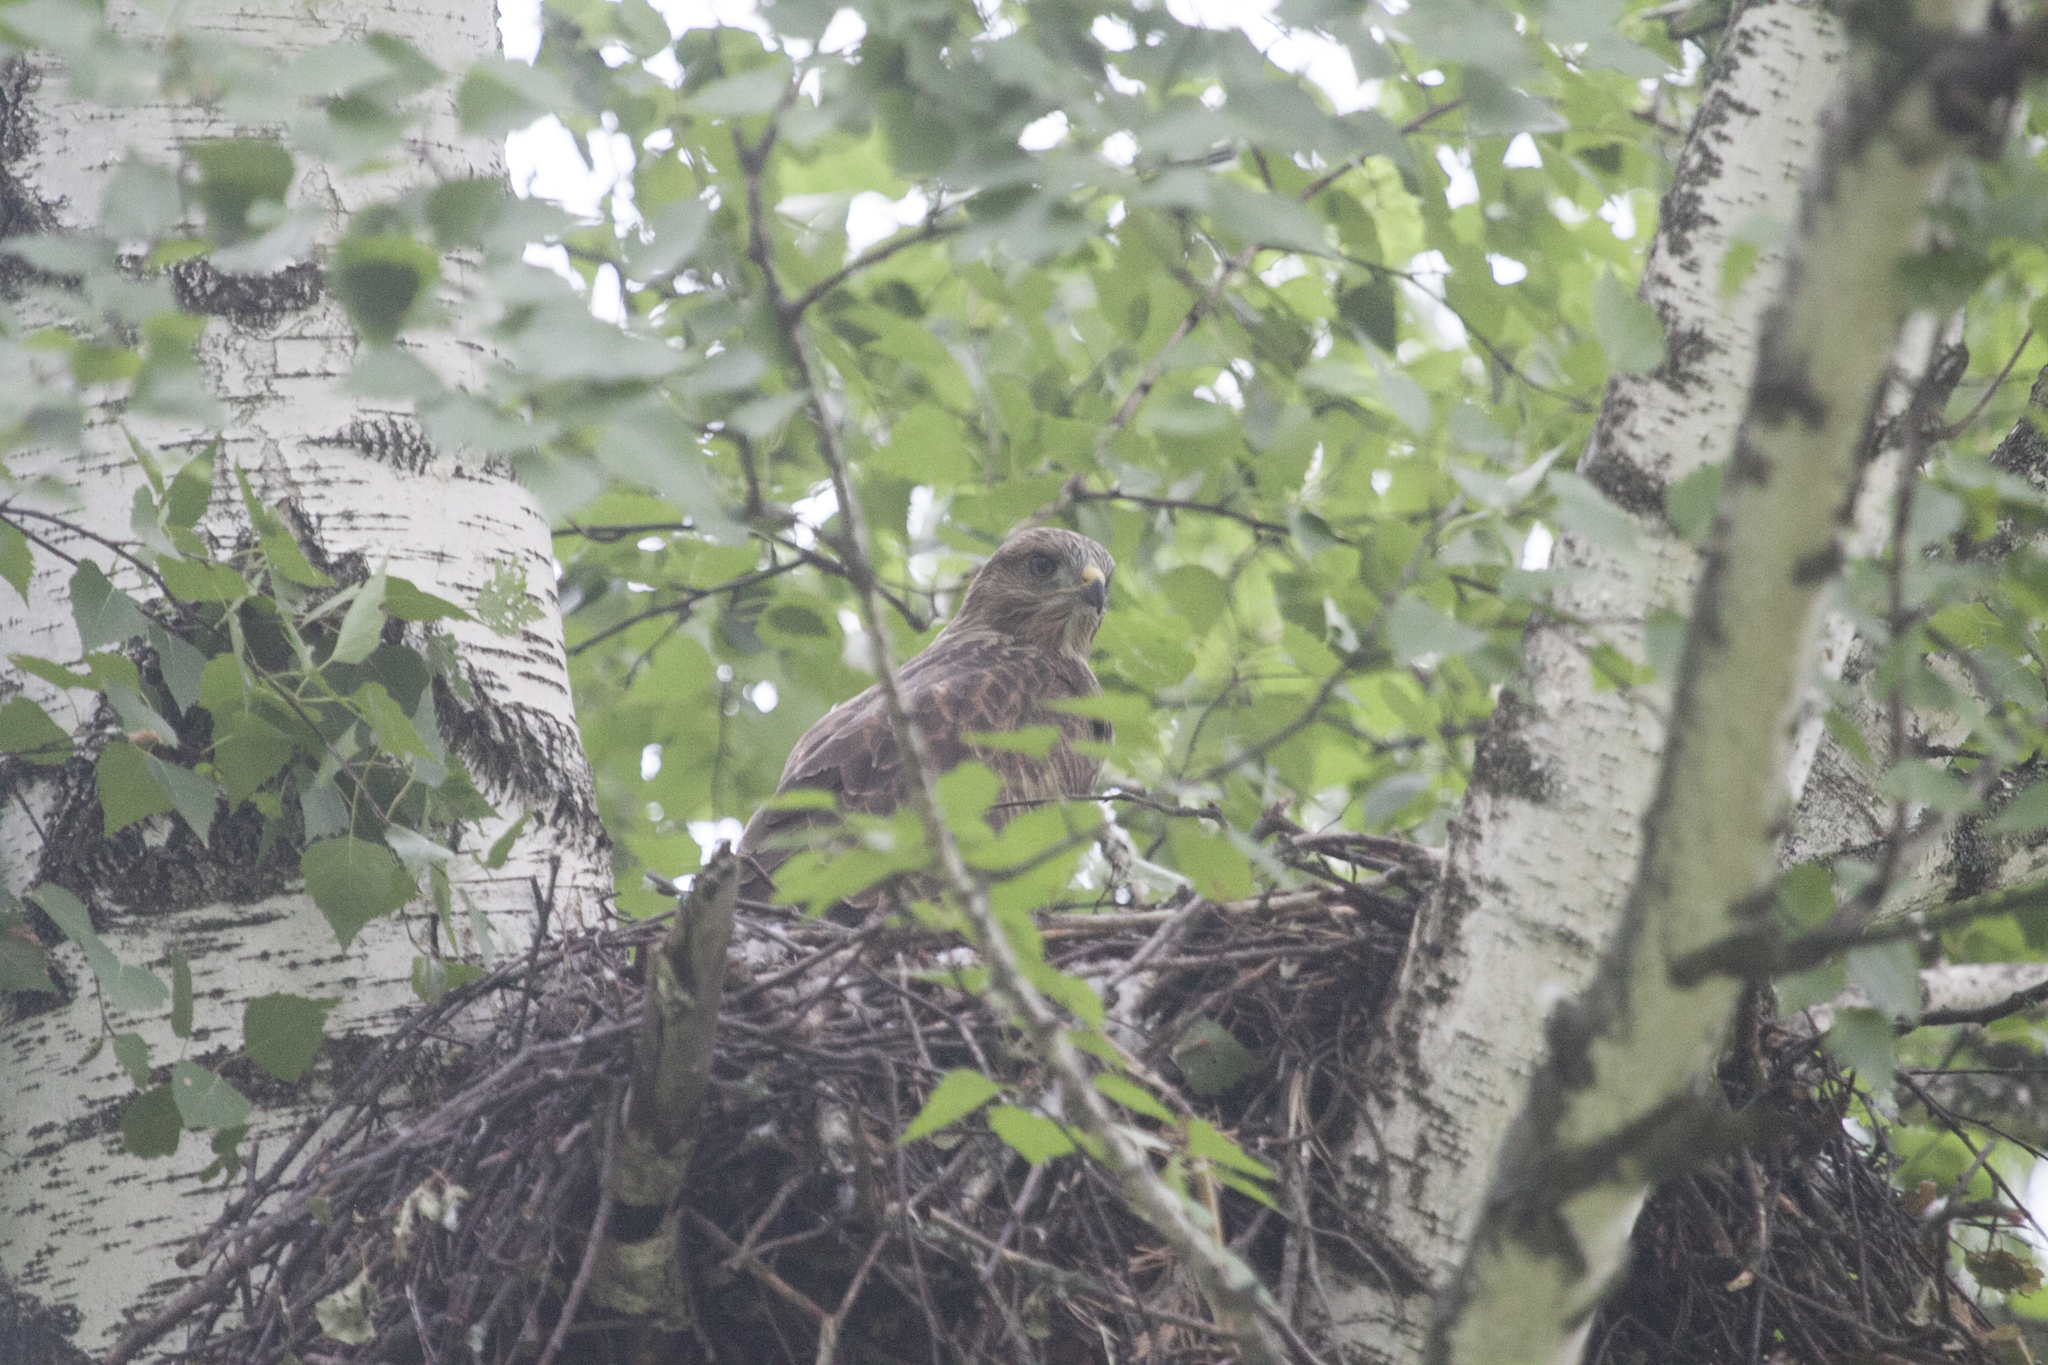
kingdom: Animalia
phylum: Chordata
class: Aves
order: Accipitriformes
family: Accipitridae
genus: Buteo
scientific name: Buteo buteo
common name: Common buzzard
